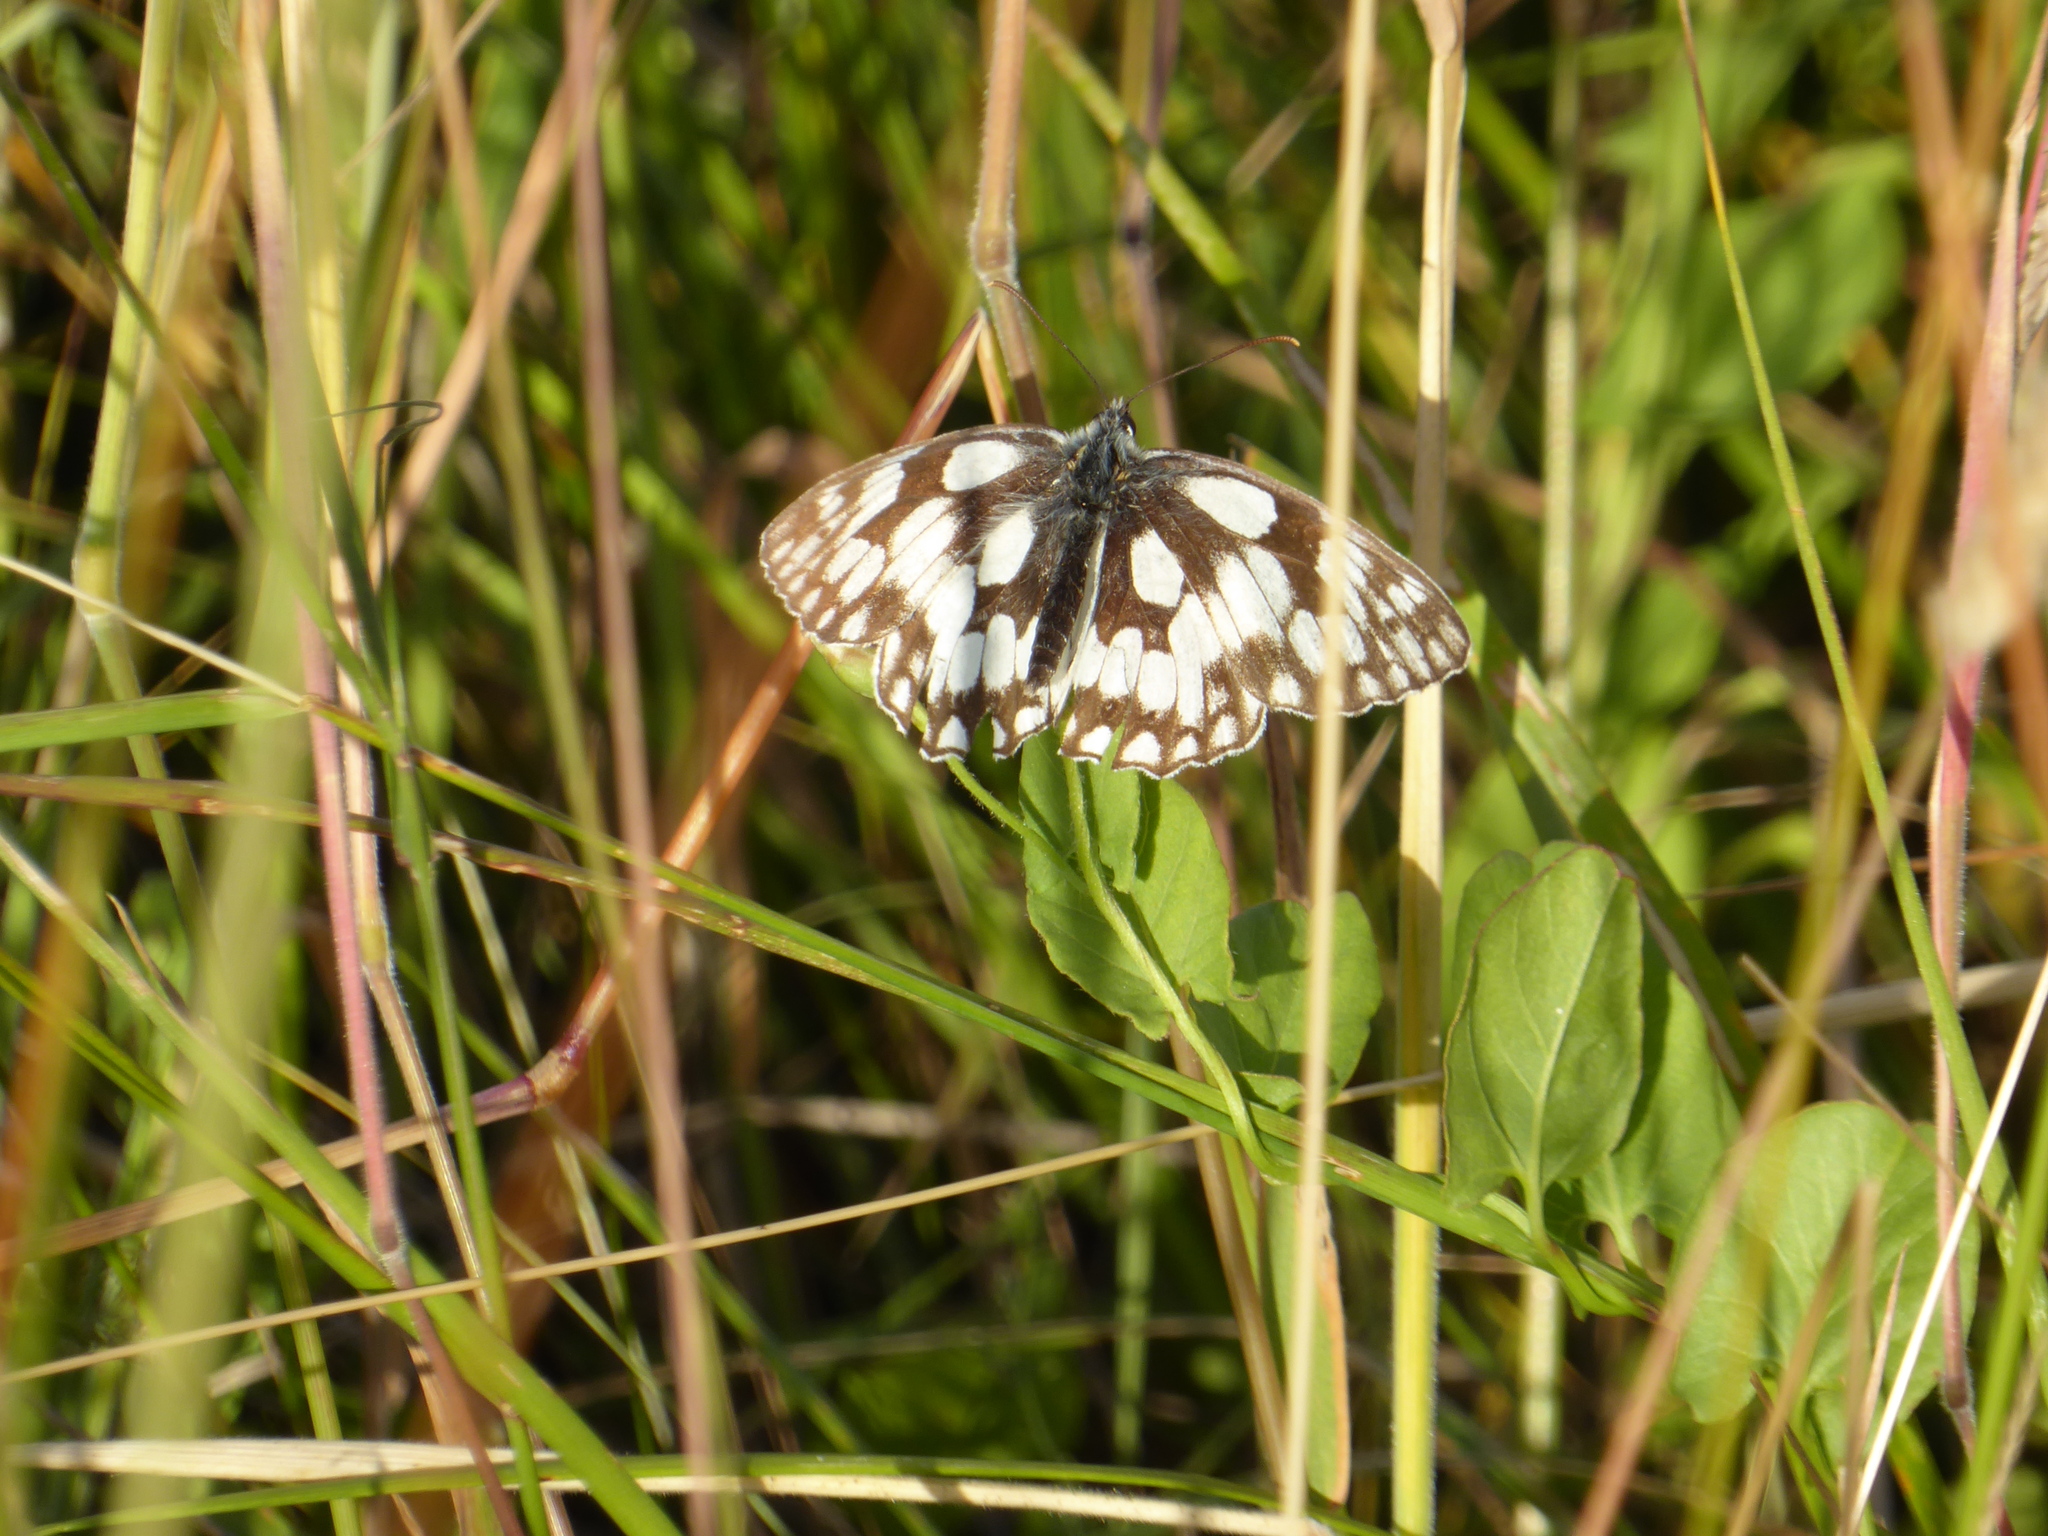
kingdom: Animalia
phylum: Arthropoda
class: Insecta
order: Lepidoptera
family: Nymphalidae
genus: Melanargia
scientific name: Melanargia galathea
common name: Marbled white
